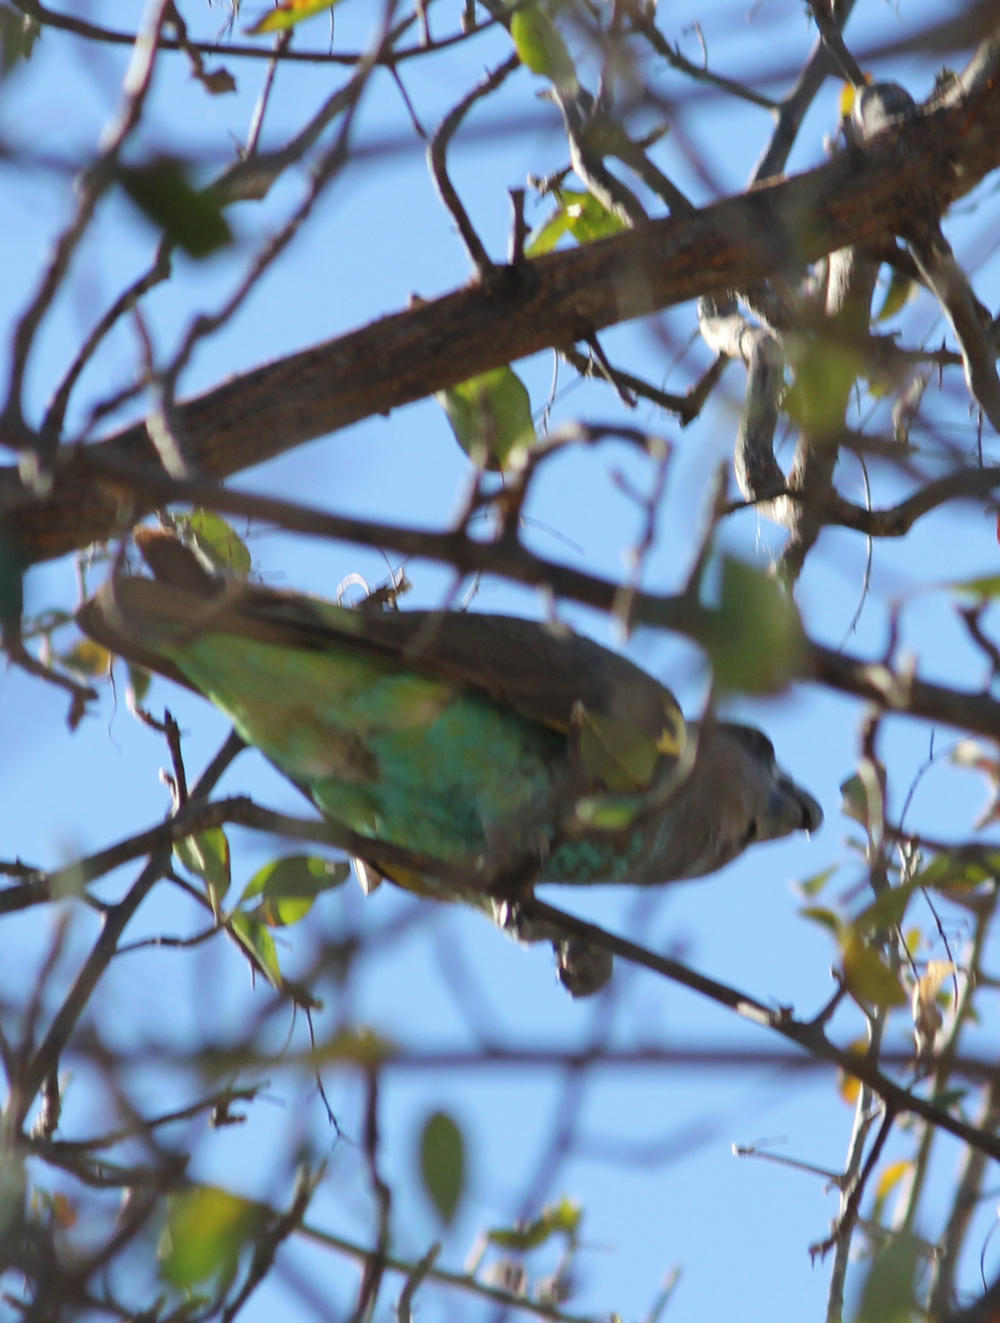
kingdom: Animalia
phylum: Chordata
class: Aves
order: Psittaciformes
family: Psittacidae
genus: Poicephalus
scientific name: Poicephalus meyeri
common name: Meyer's parrot
